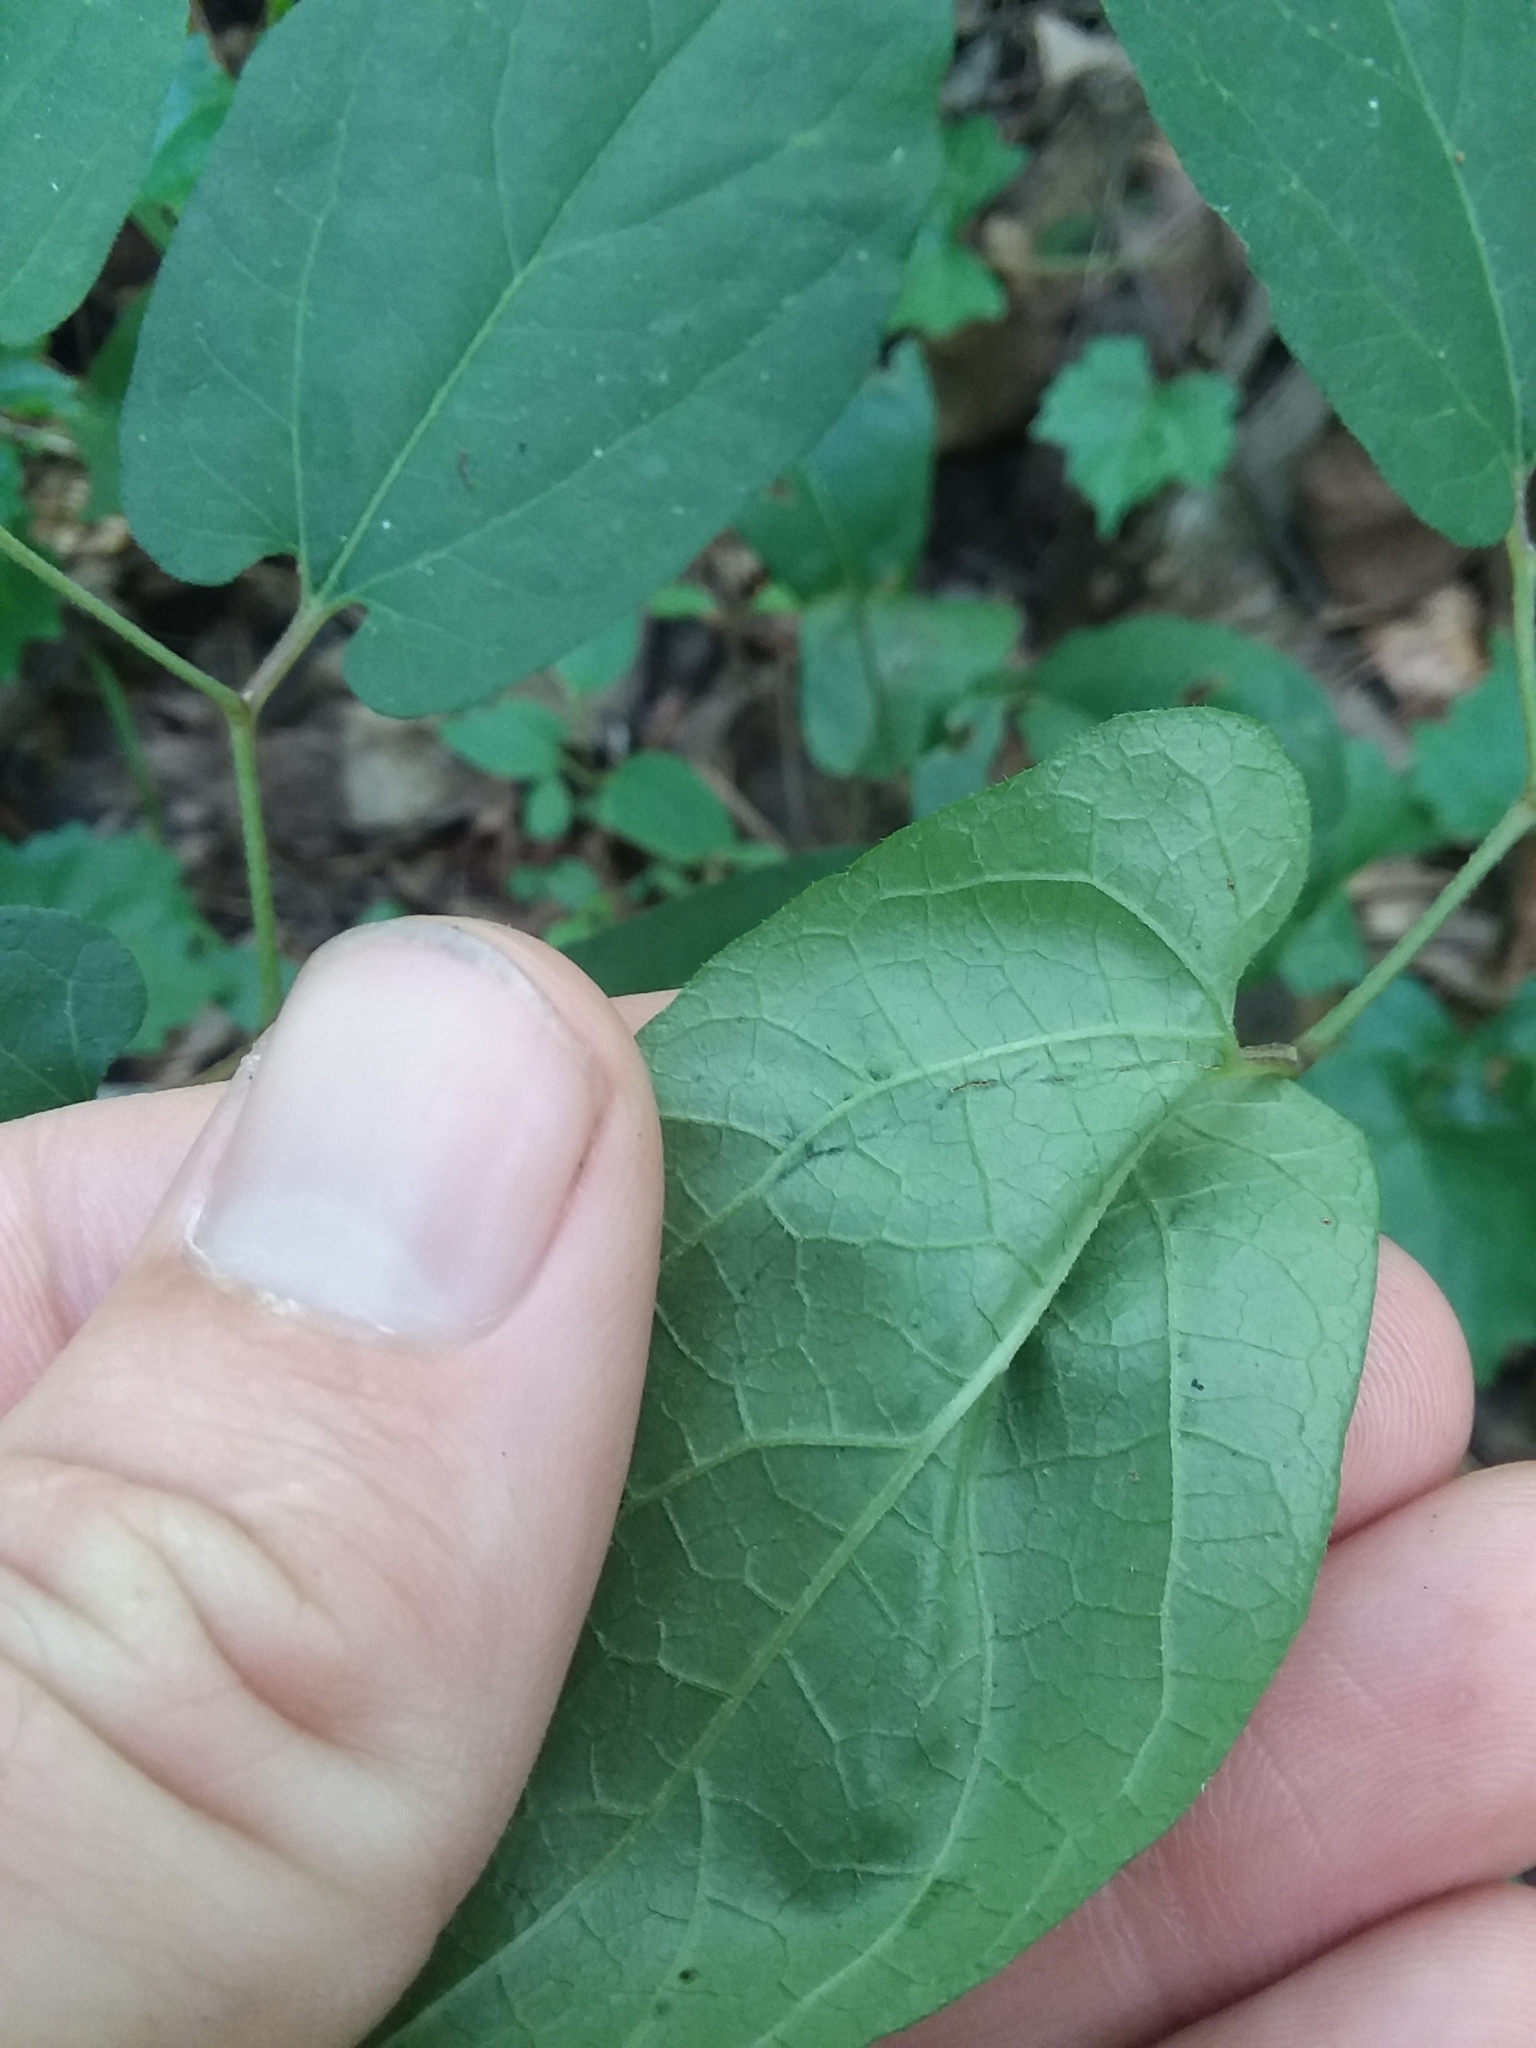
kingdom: Plantae
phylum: Tracheophyta
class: Magnoliopsida
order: Piperales
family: Aristolochiaceae
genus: Endodeca
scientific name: Endodeca serpentaria
